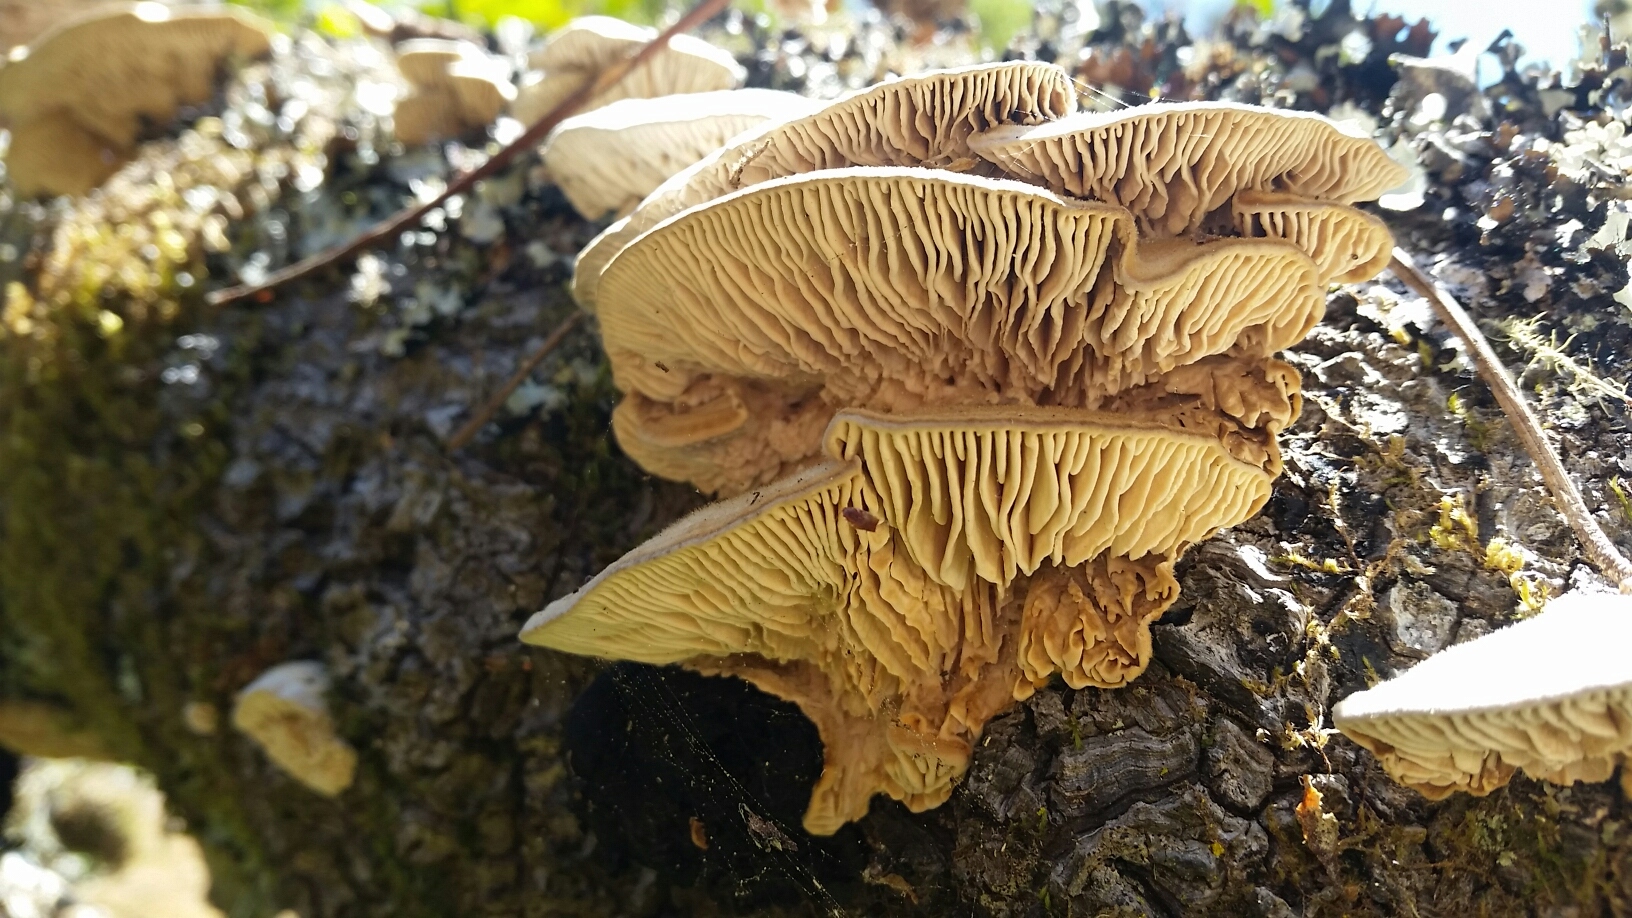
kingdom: Fungi
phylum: Basidiomycota
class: Agaricomycetes
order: Polyporales
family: Polyporaceae
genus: Lenzites
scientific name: Lenzites betulinus
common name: Birch mazegill
